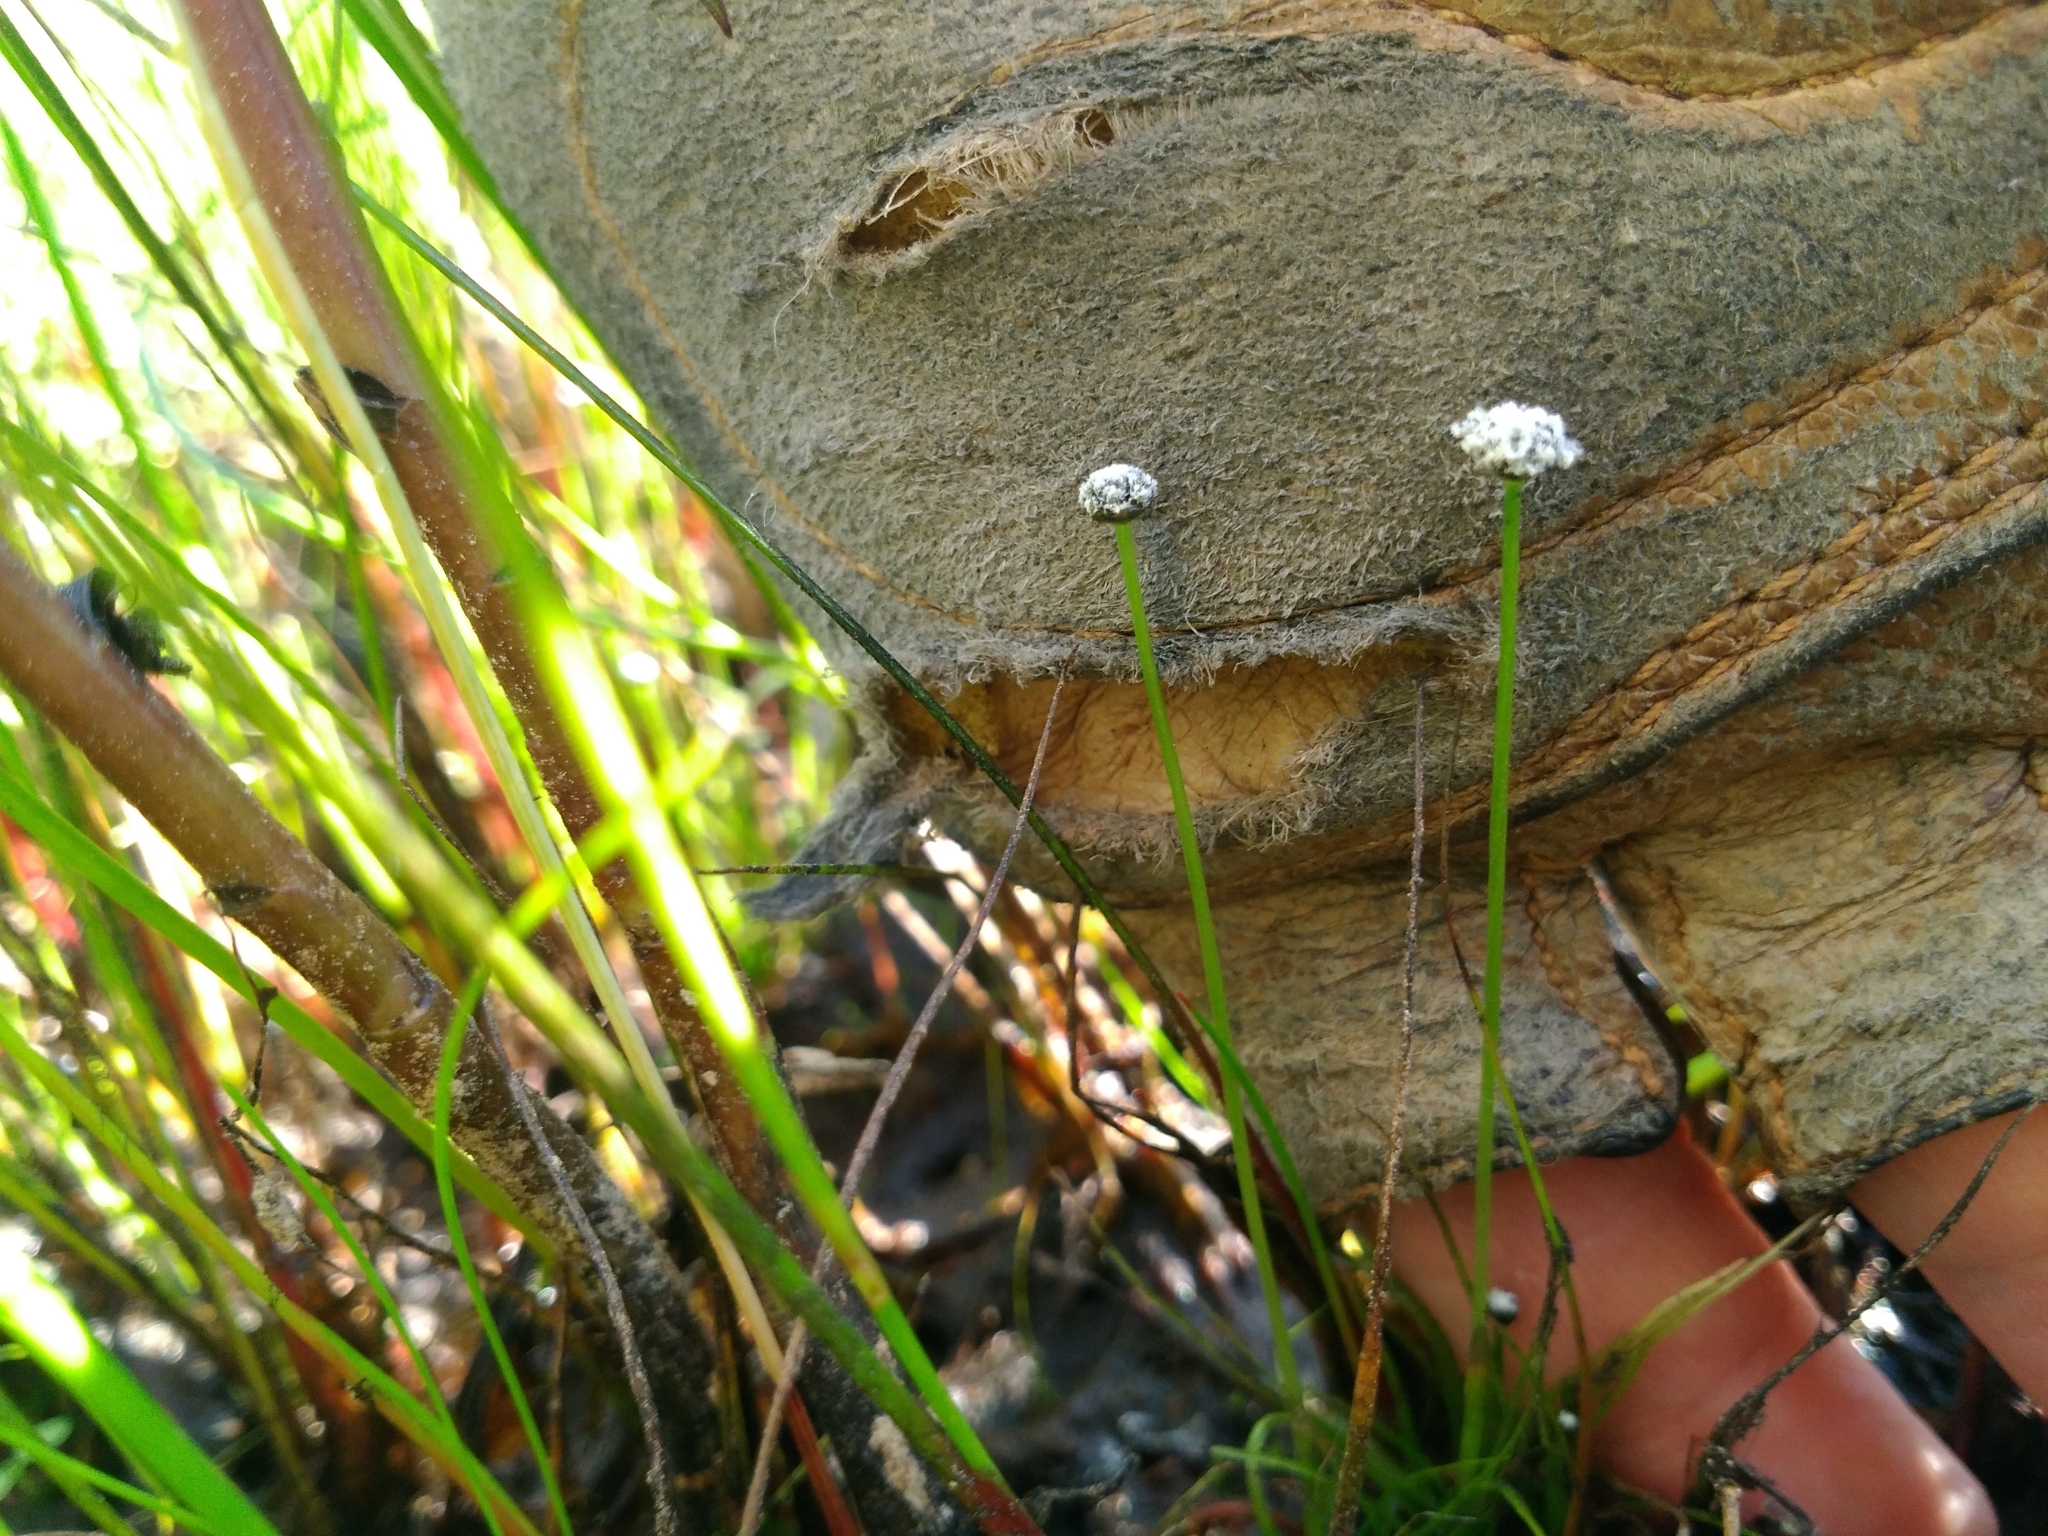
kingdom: Plantae
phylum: Tracheophyta
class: Liliopsida
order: Poales
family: Eriocaulaceae
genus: Eriocaulon
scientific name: Eriocaulon aquaticum
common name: Pipewort
